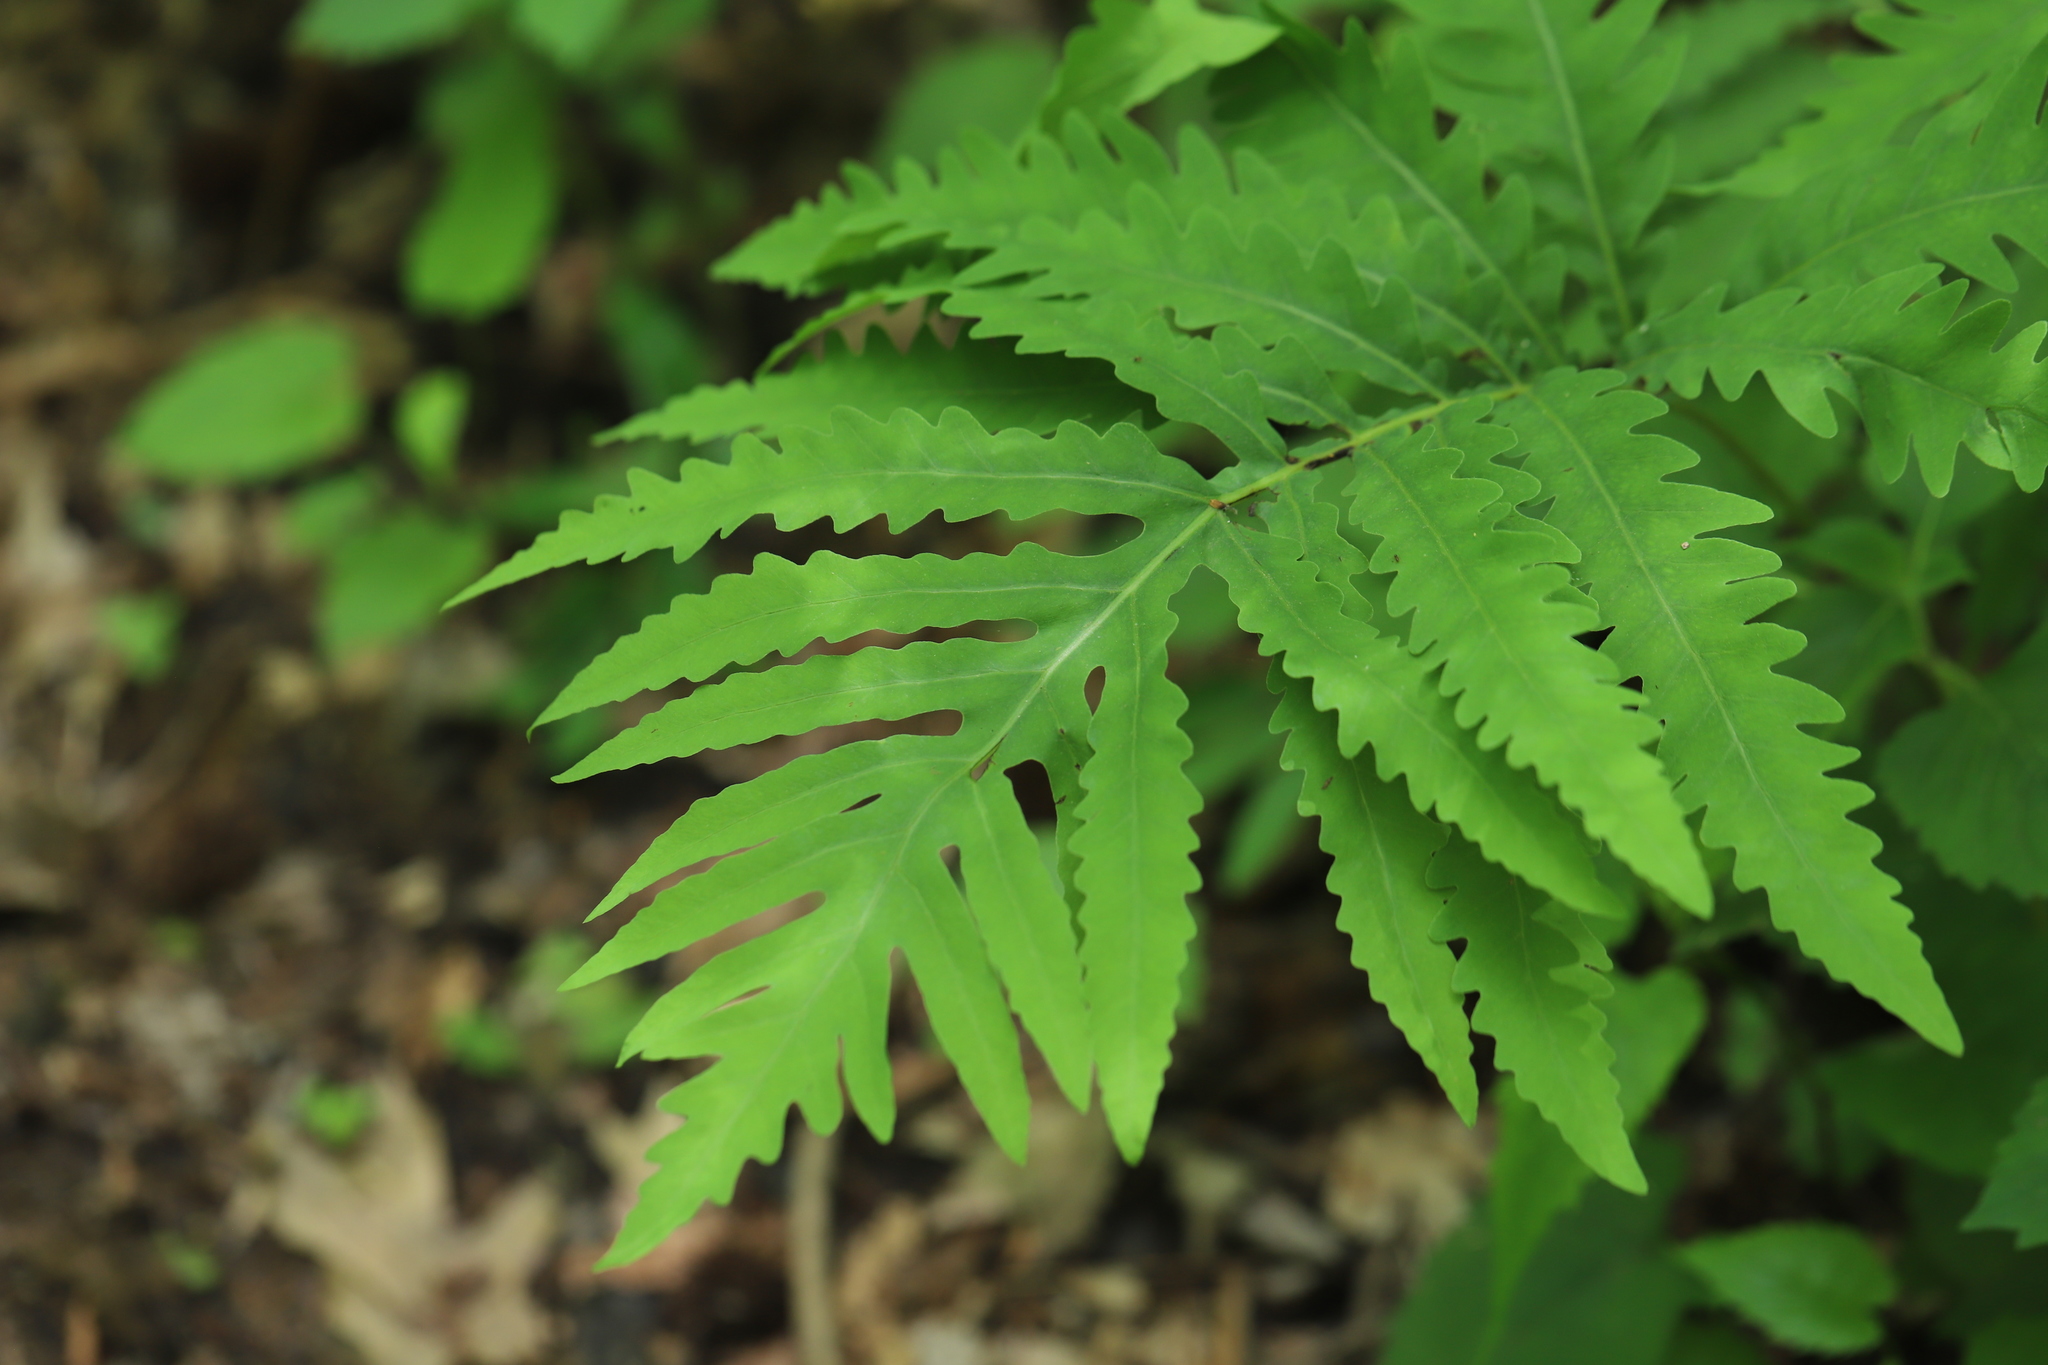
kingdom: Plantae
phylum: Tracheophyta
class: Polypodiopsida
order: Polypodiales
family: Onocleaceae
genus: Onoclea
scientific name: Onoclea sensibilis
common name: Sensitive fern
